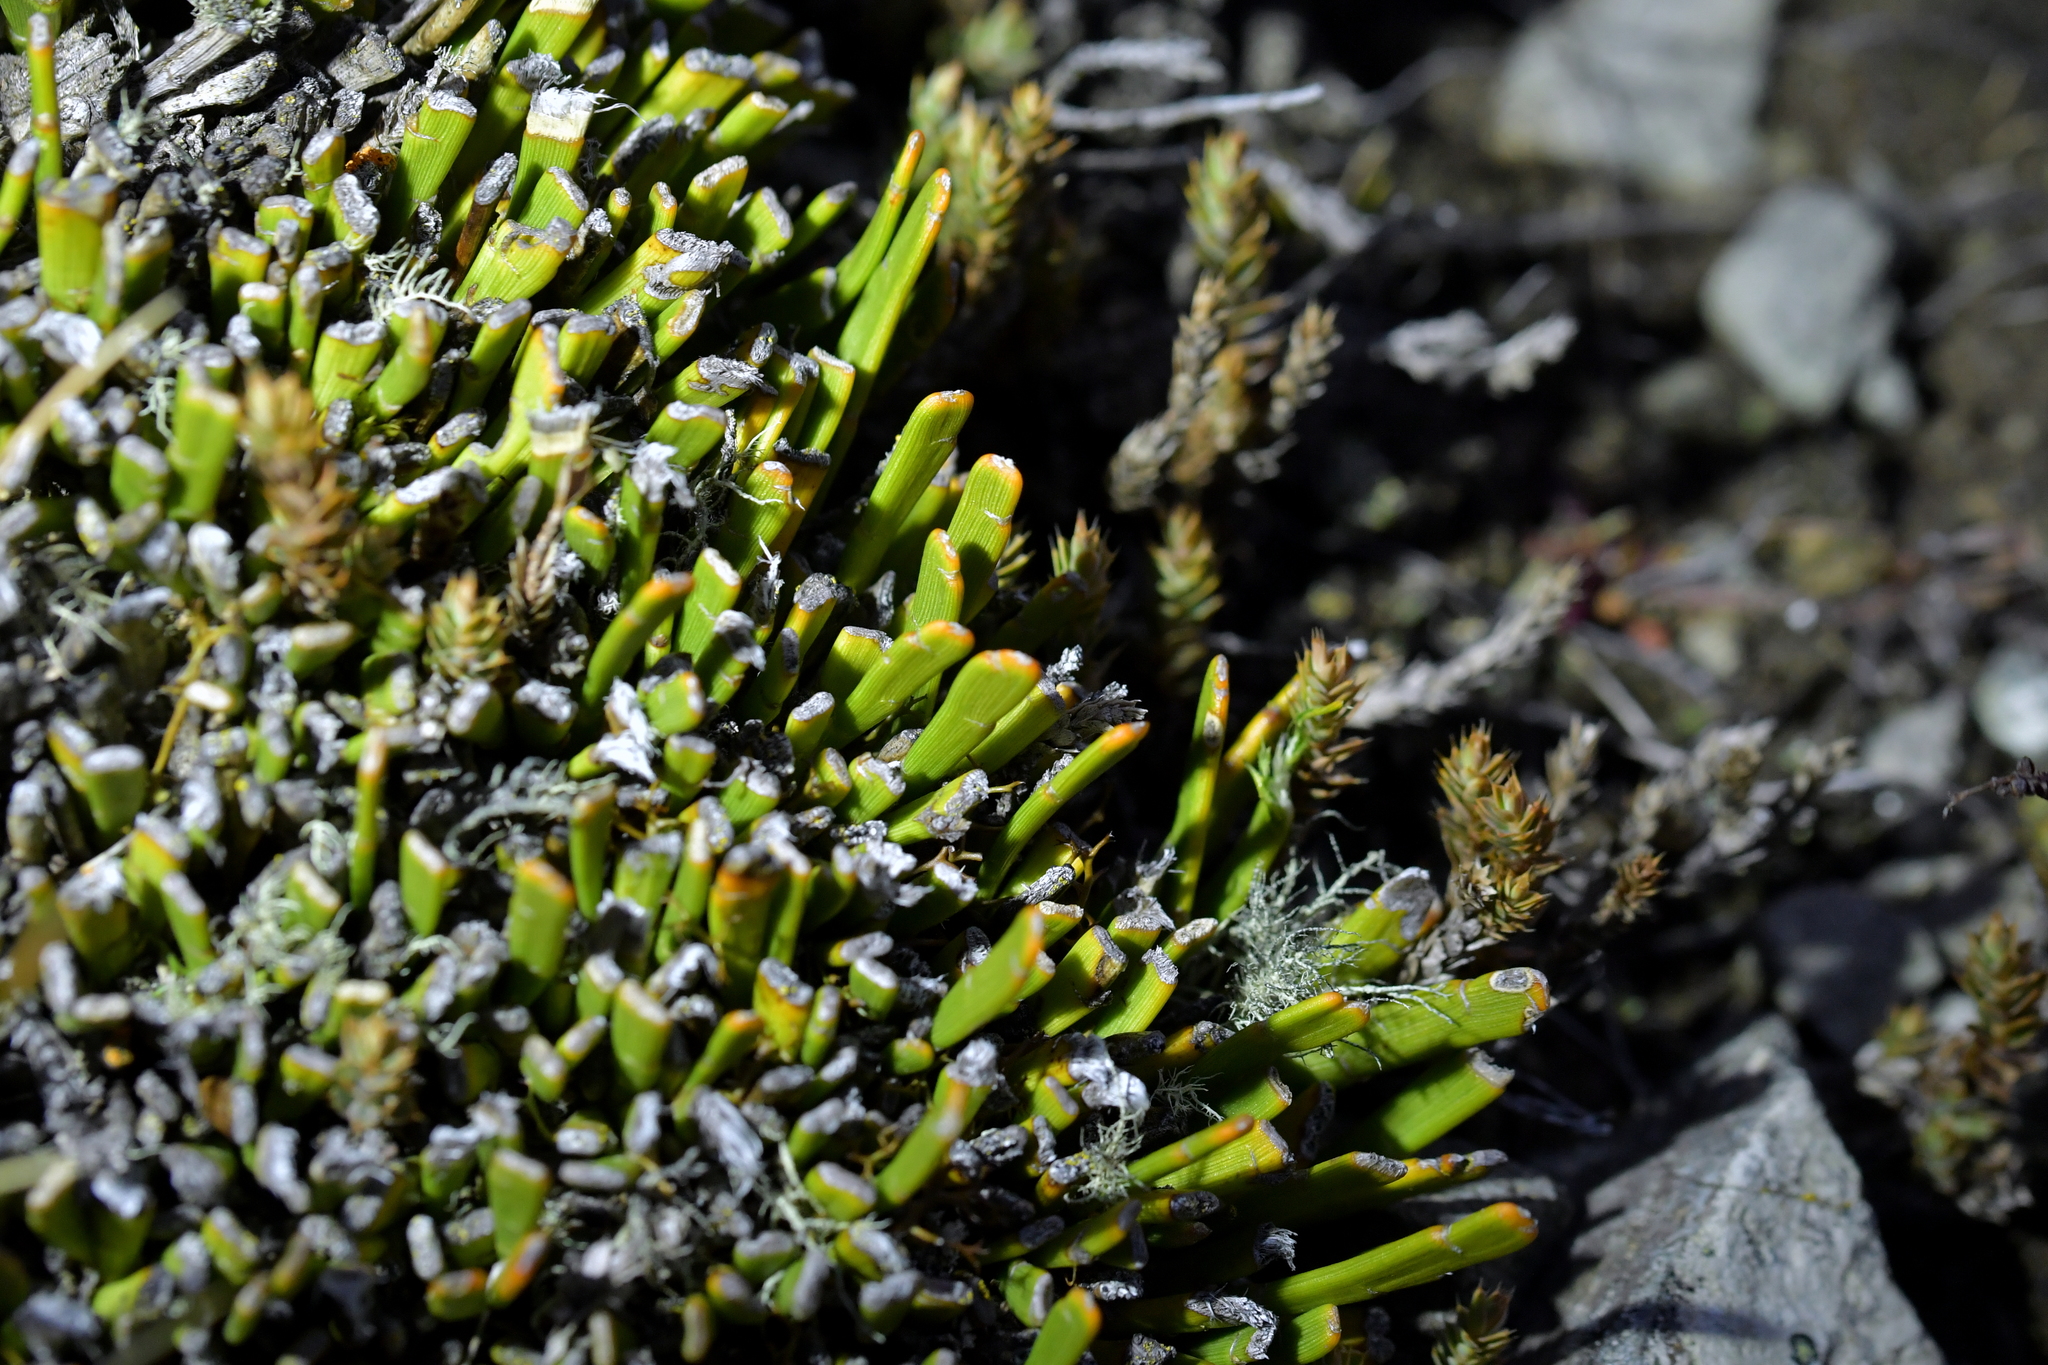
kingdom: Plantae
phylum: Tracheophyta
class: Magnoliopsida
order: Fabales
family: Fabaceae
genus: Carmichaelia
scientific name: Carmichaelia monroi
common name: Stout dwarf broom
